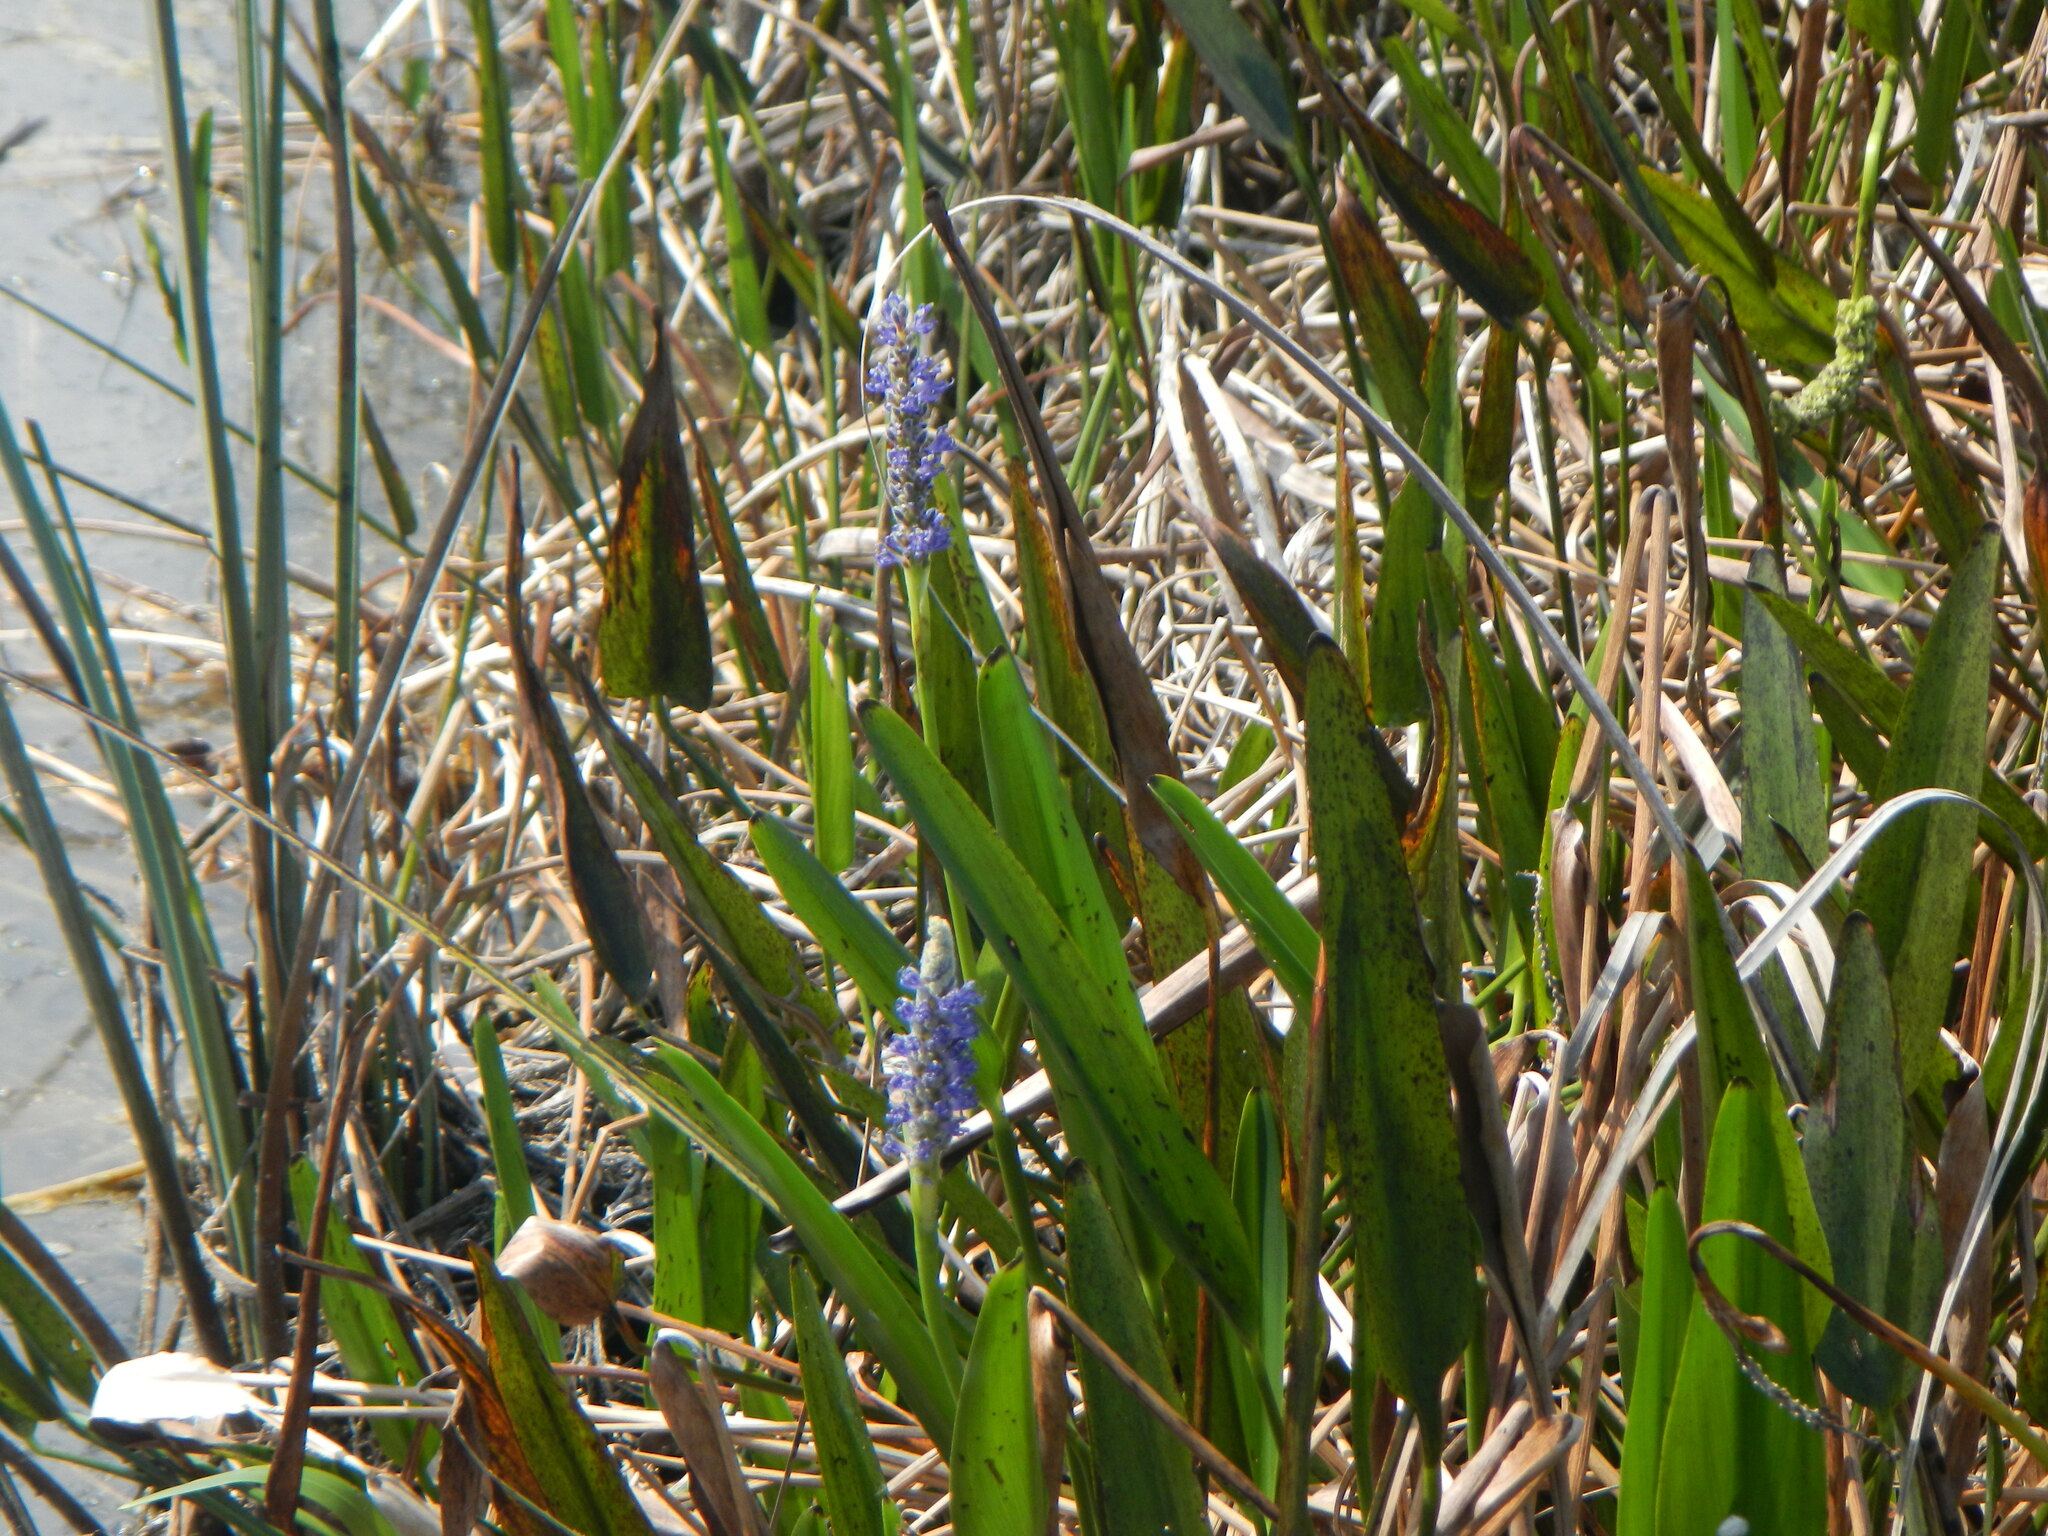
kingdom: Plantae
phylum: Tracheophyta
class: Liliopsida
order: Commelinales
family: Pontederiaceae
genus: Pontederia
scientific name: Pontederia cordata
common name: Pickerelweed
